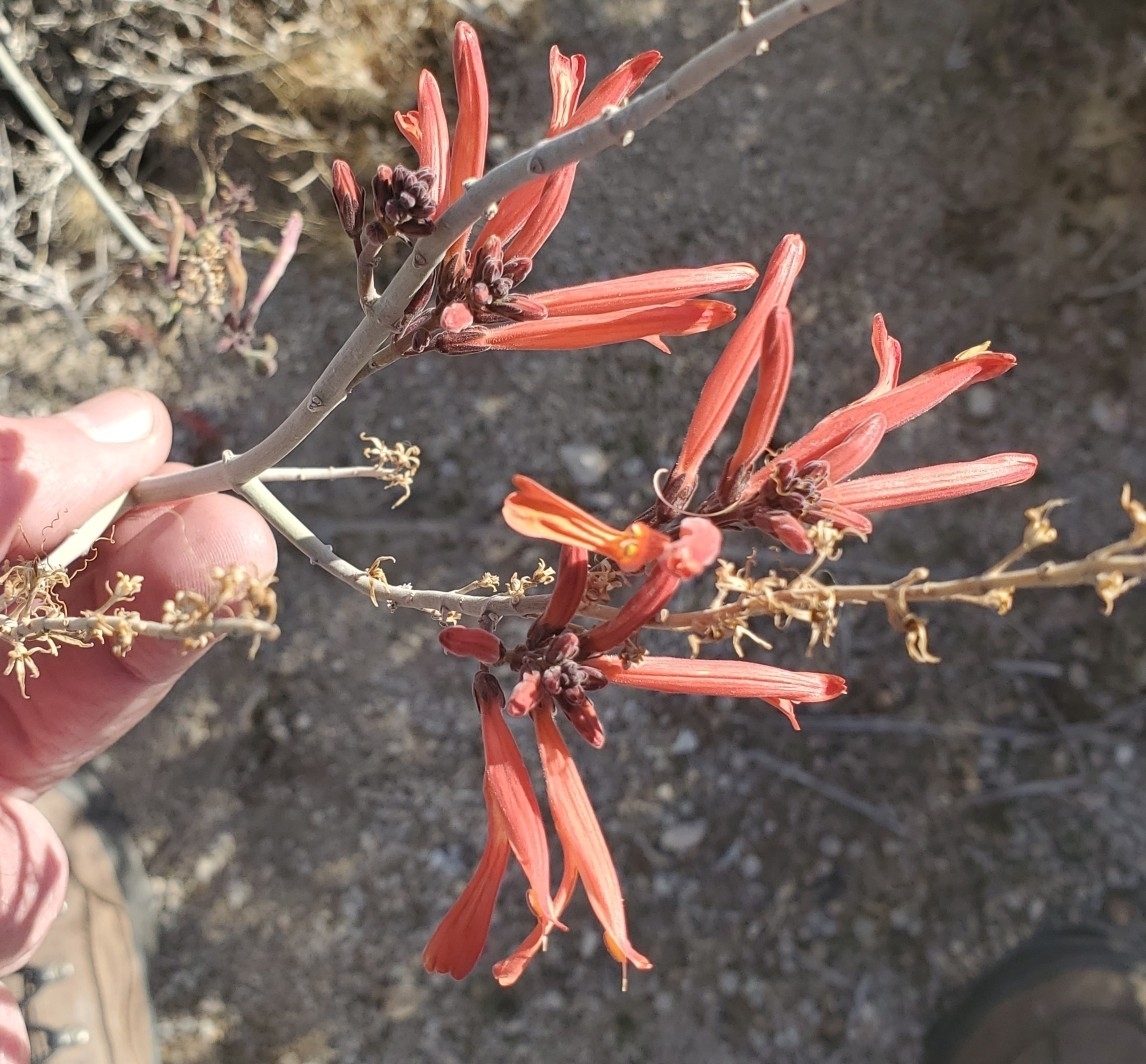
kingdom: Plantae
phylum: Tracheophyta
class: Magnoliopsida
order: Lamiales
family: Acanthaceae
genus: Justicia
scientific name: Justicia californica
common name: Chuparosa-honeysuckle
